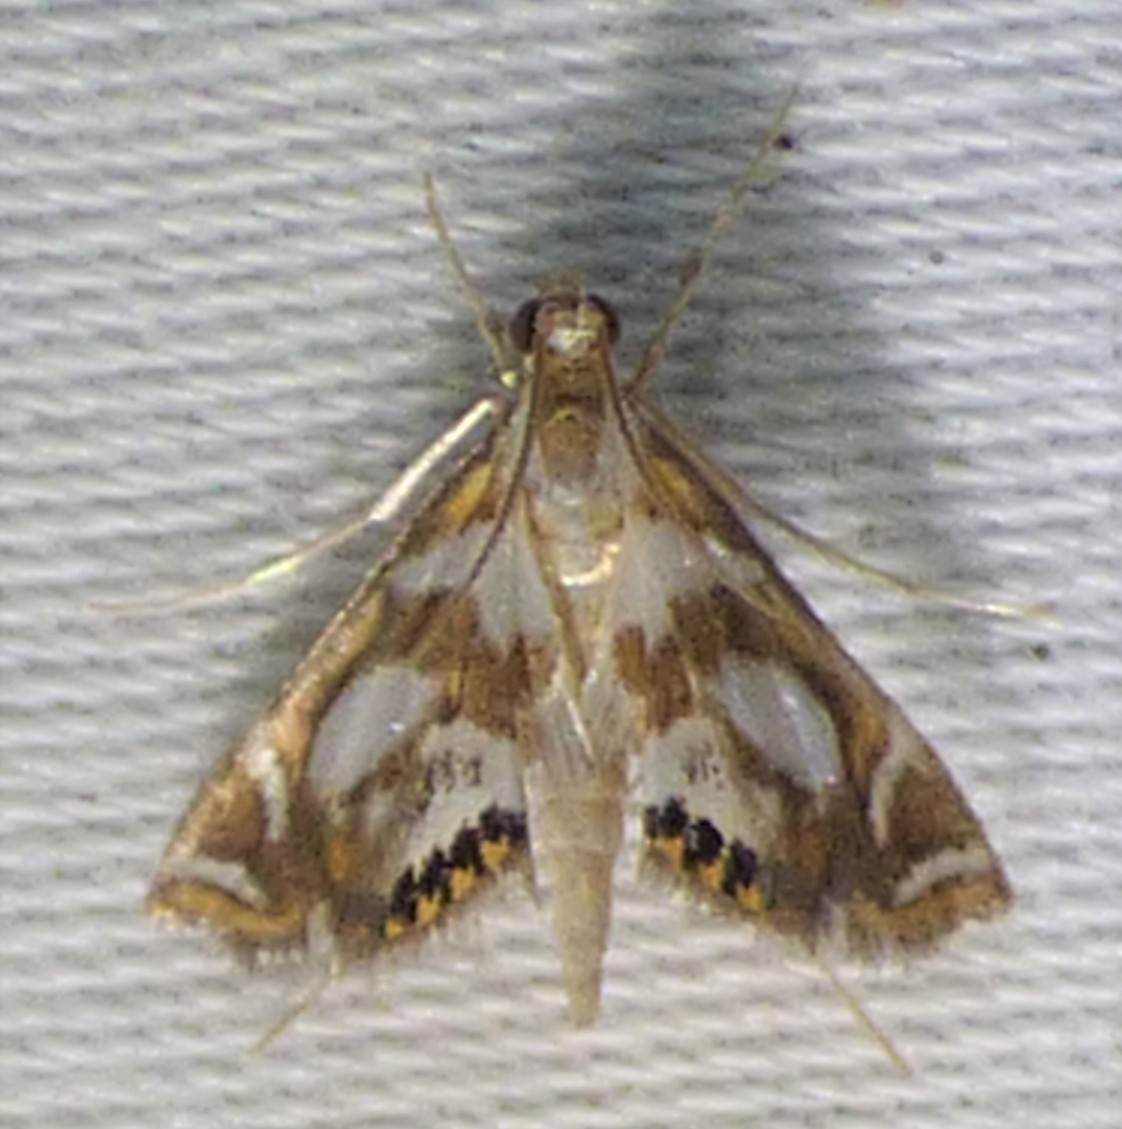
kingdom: Animalia
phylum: Arthropoda
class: Insecta
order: Lepidoptera
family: Crambidae
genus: Chrysendeton
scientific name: Chrysendeton medicinalis
